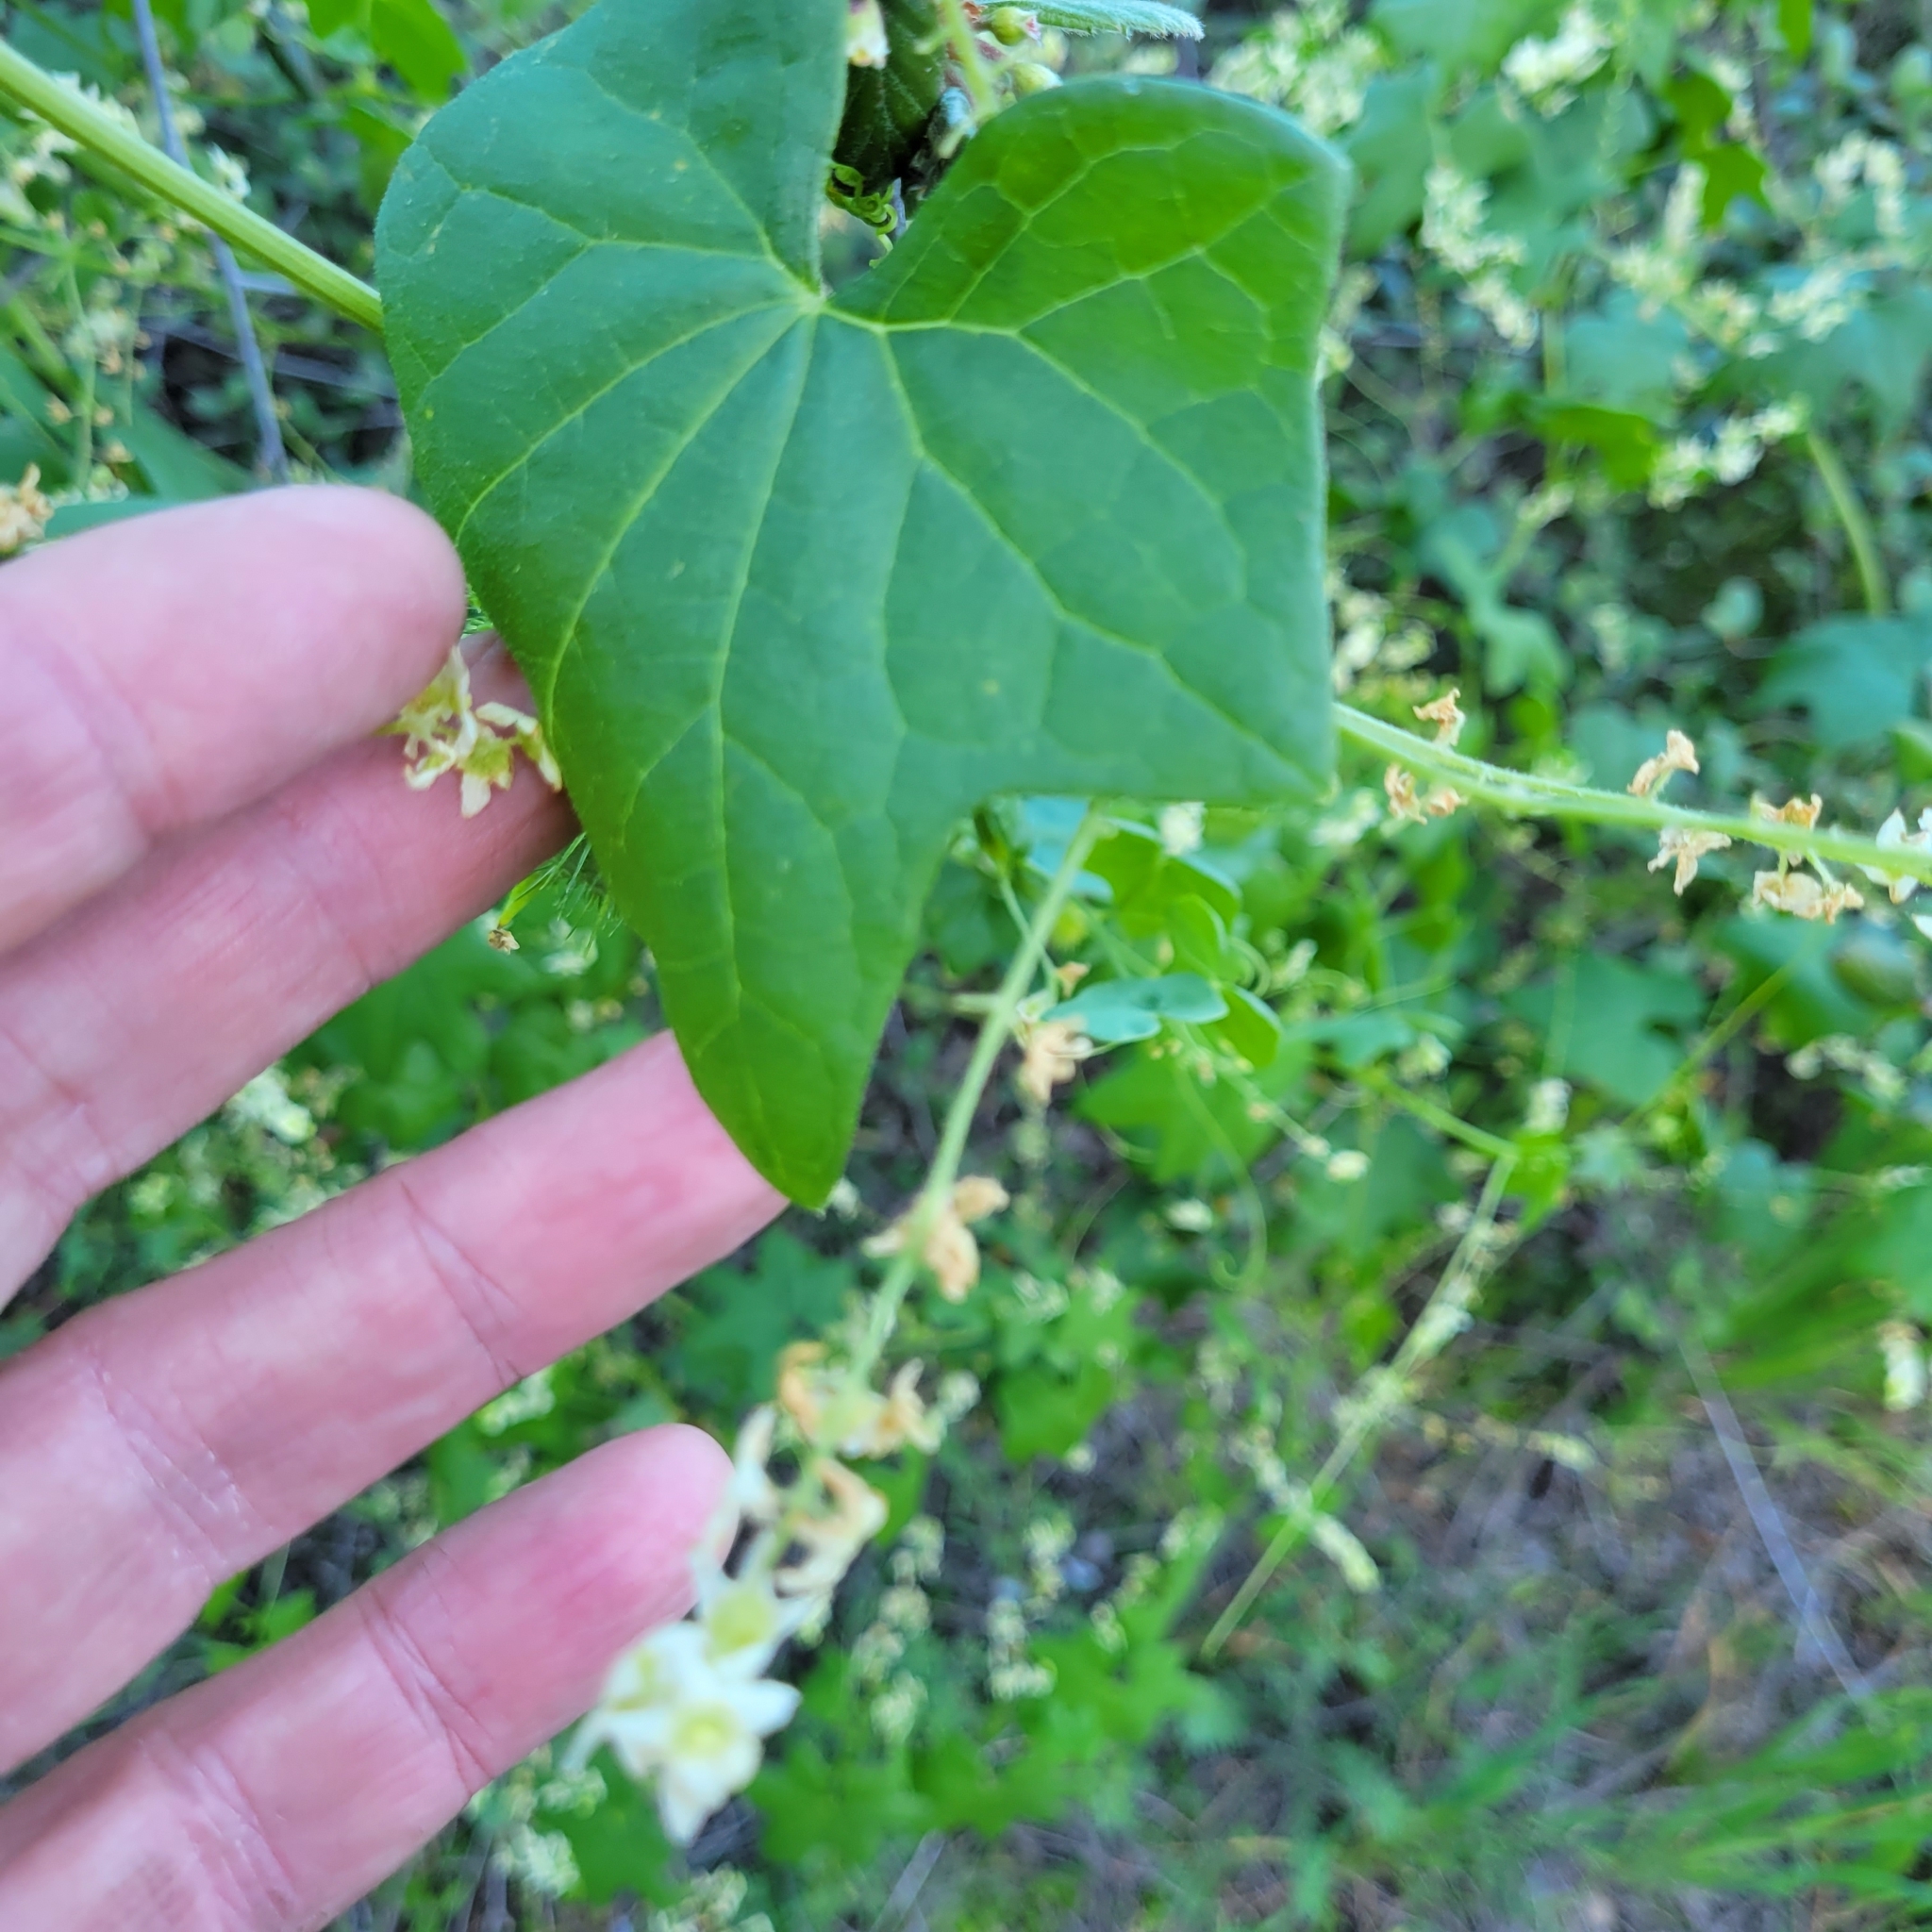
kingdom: Plantae
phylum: Tracheophyta
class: Magnoliopsida
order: Cucurbitales
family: Cucurbitaceae
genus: Marah
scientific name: Marah fabacea
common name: California manroot
